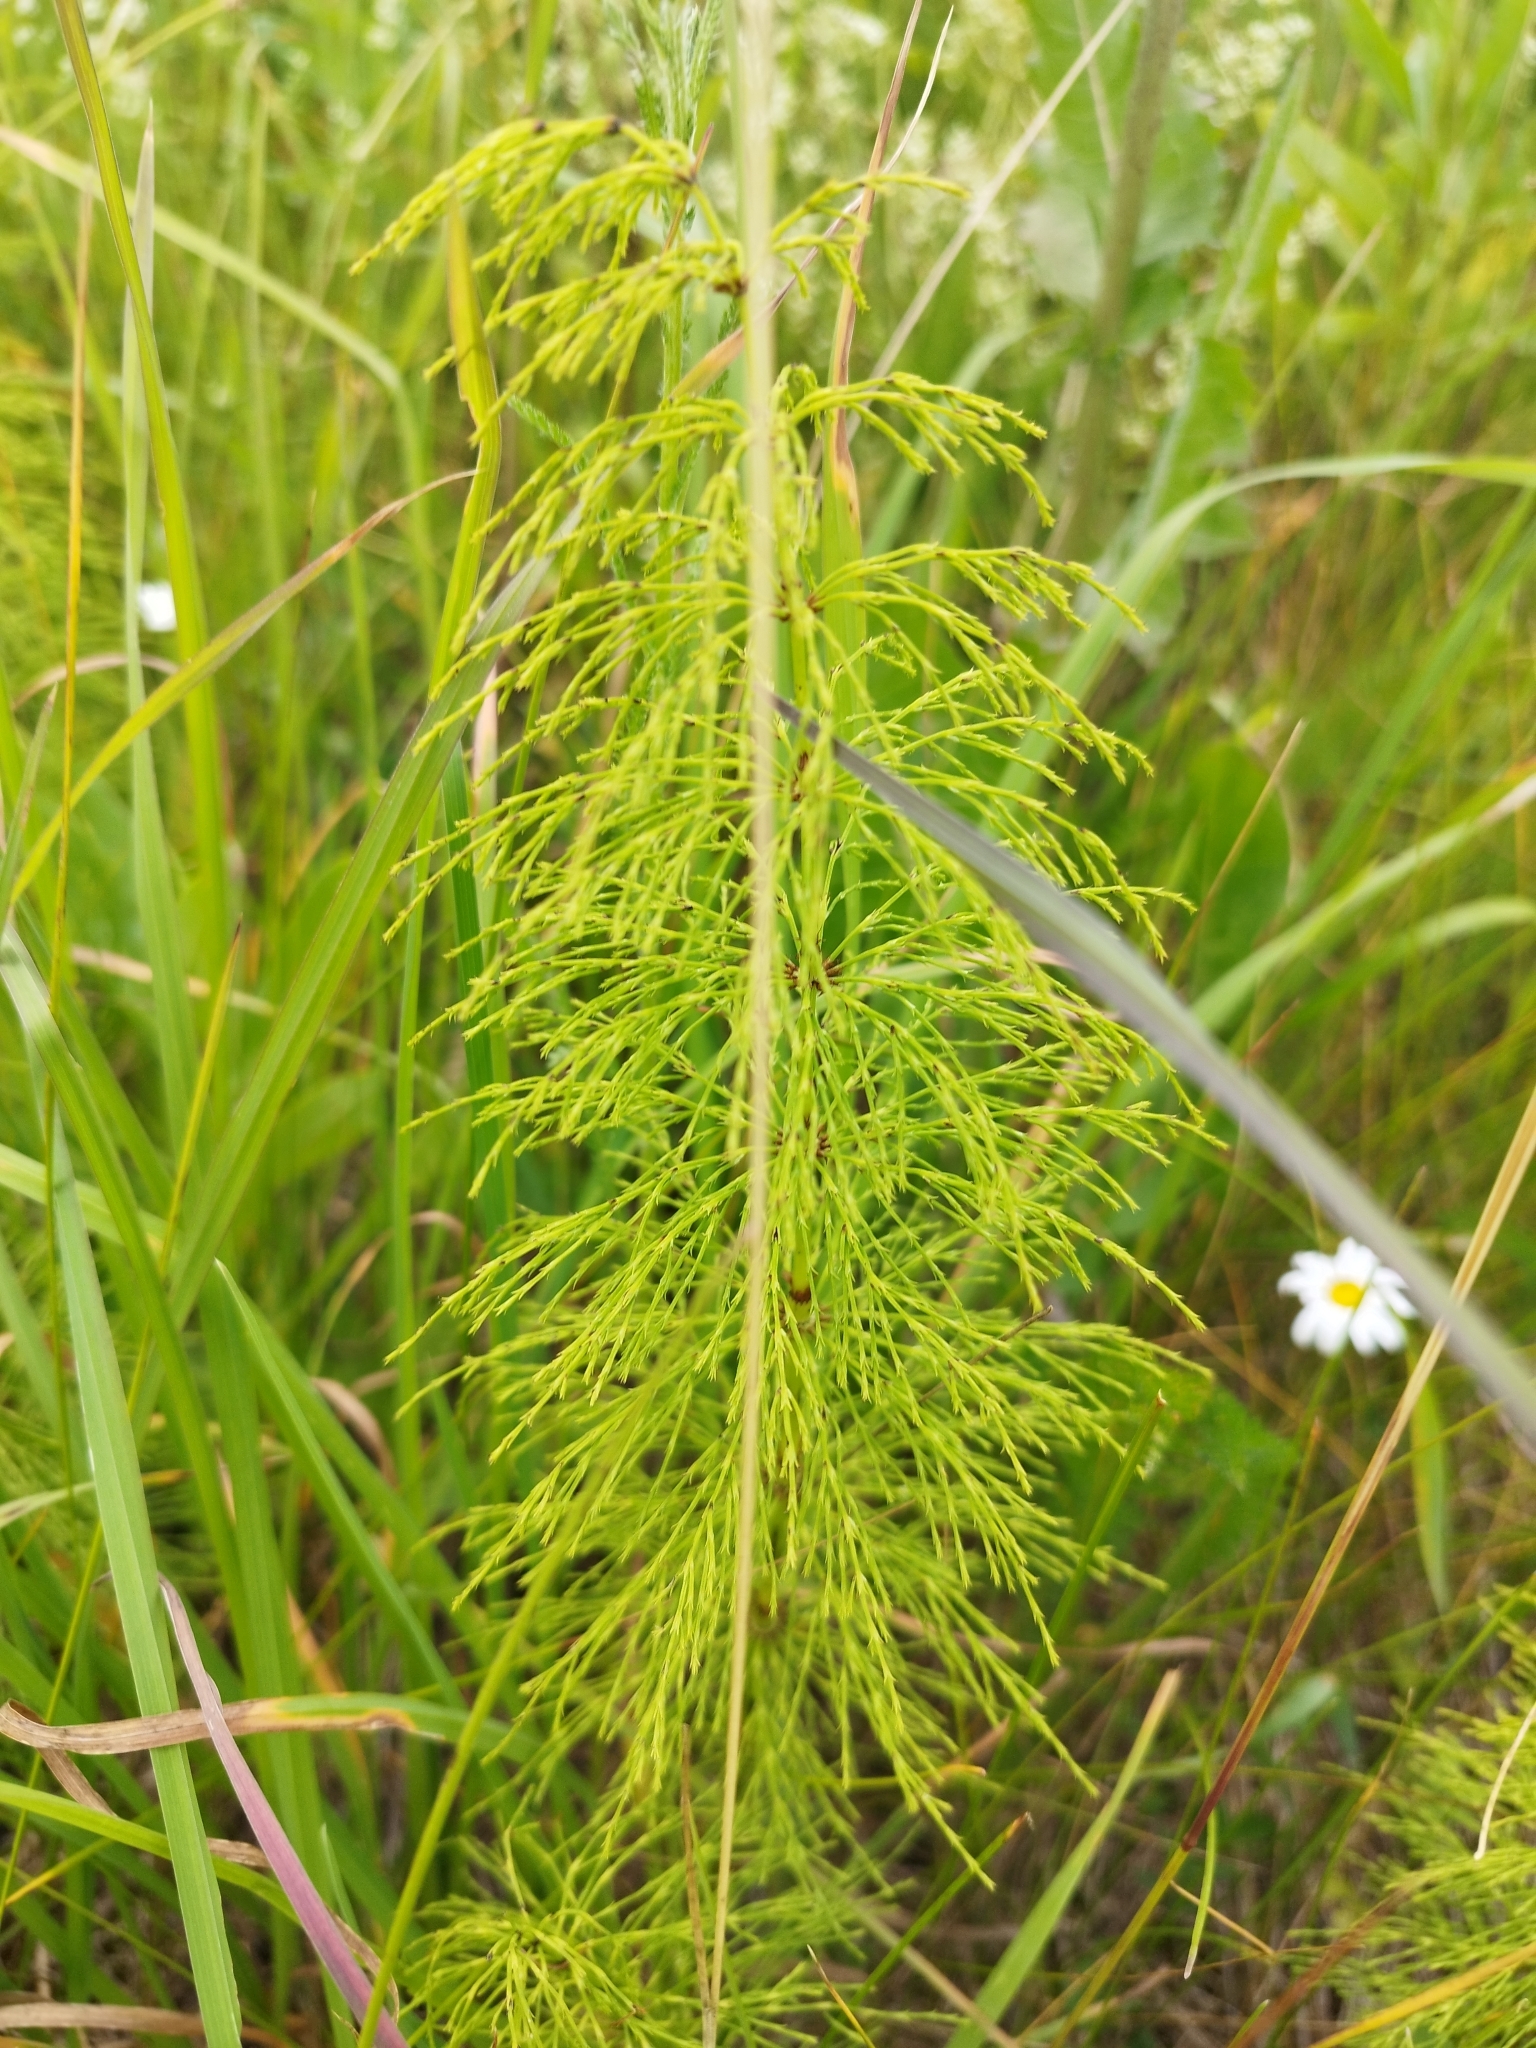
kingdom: Plantae
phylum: Tracheophyta
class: Polypodiopsida
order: Equisetales
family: Equisetaceae
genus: Equisetum
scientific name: Equisetum sylvaticum
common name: Wood horsetail
